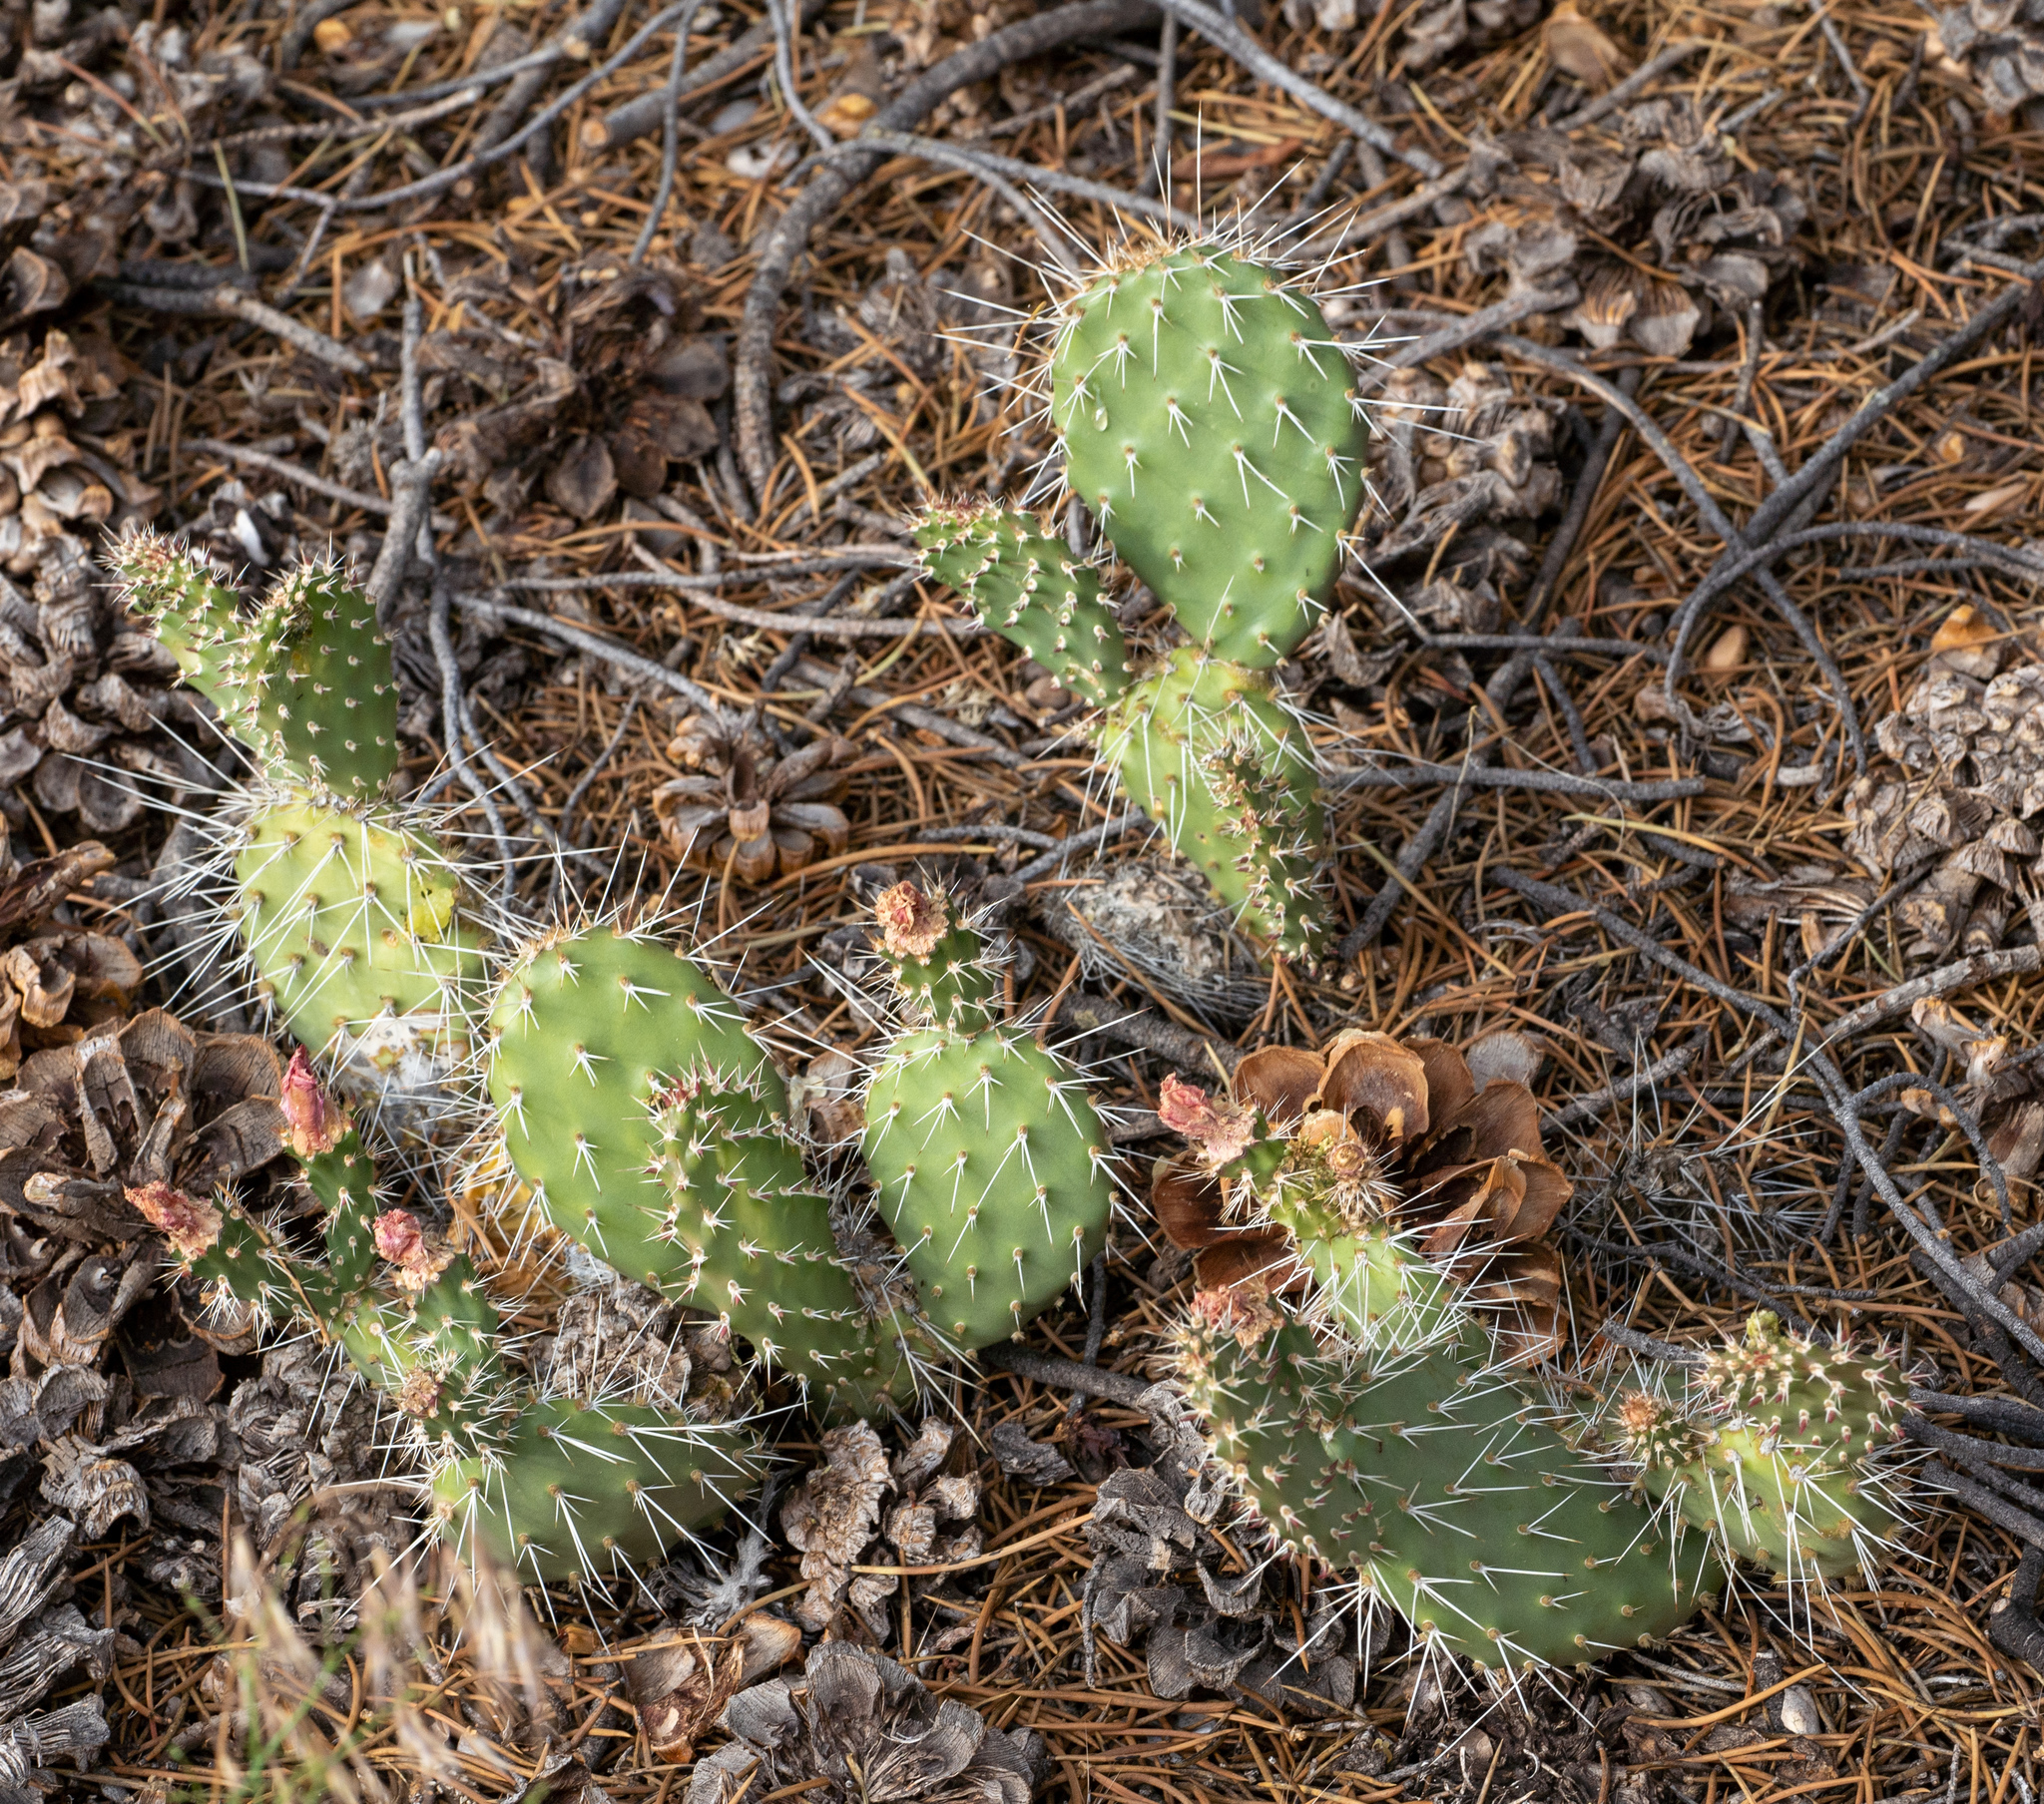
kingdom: Plantae
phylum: Tracheophyta
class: Magnoliopsida
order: Caryophyllales
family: Cactaceae
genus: Opuntia
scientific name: Opuntia polyacantha
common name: Plains prickly-pear
